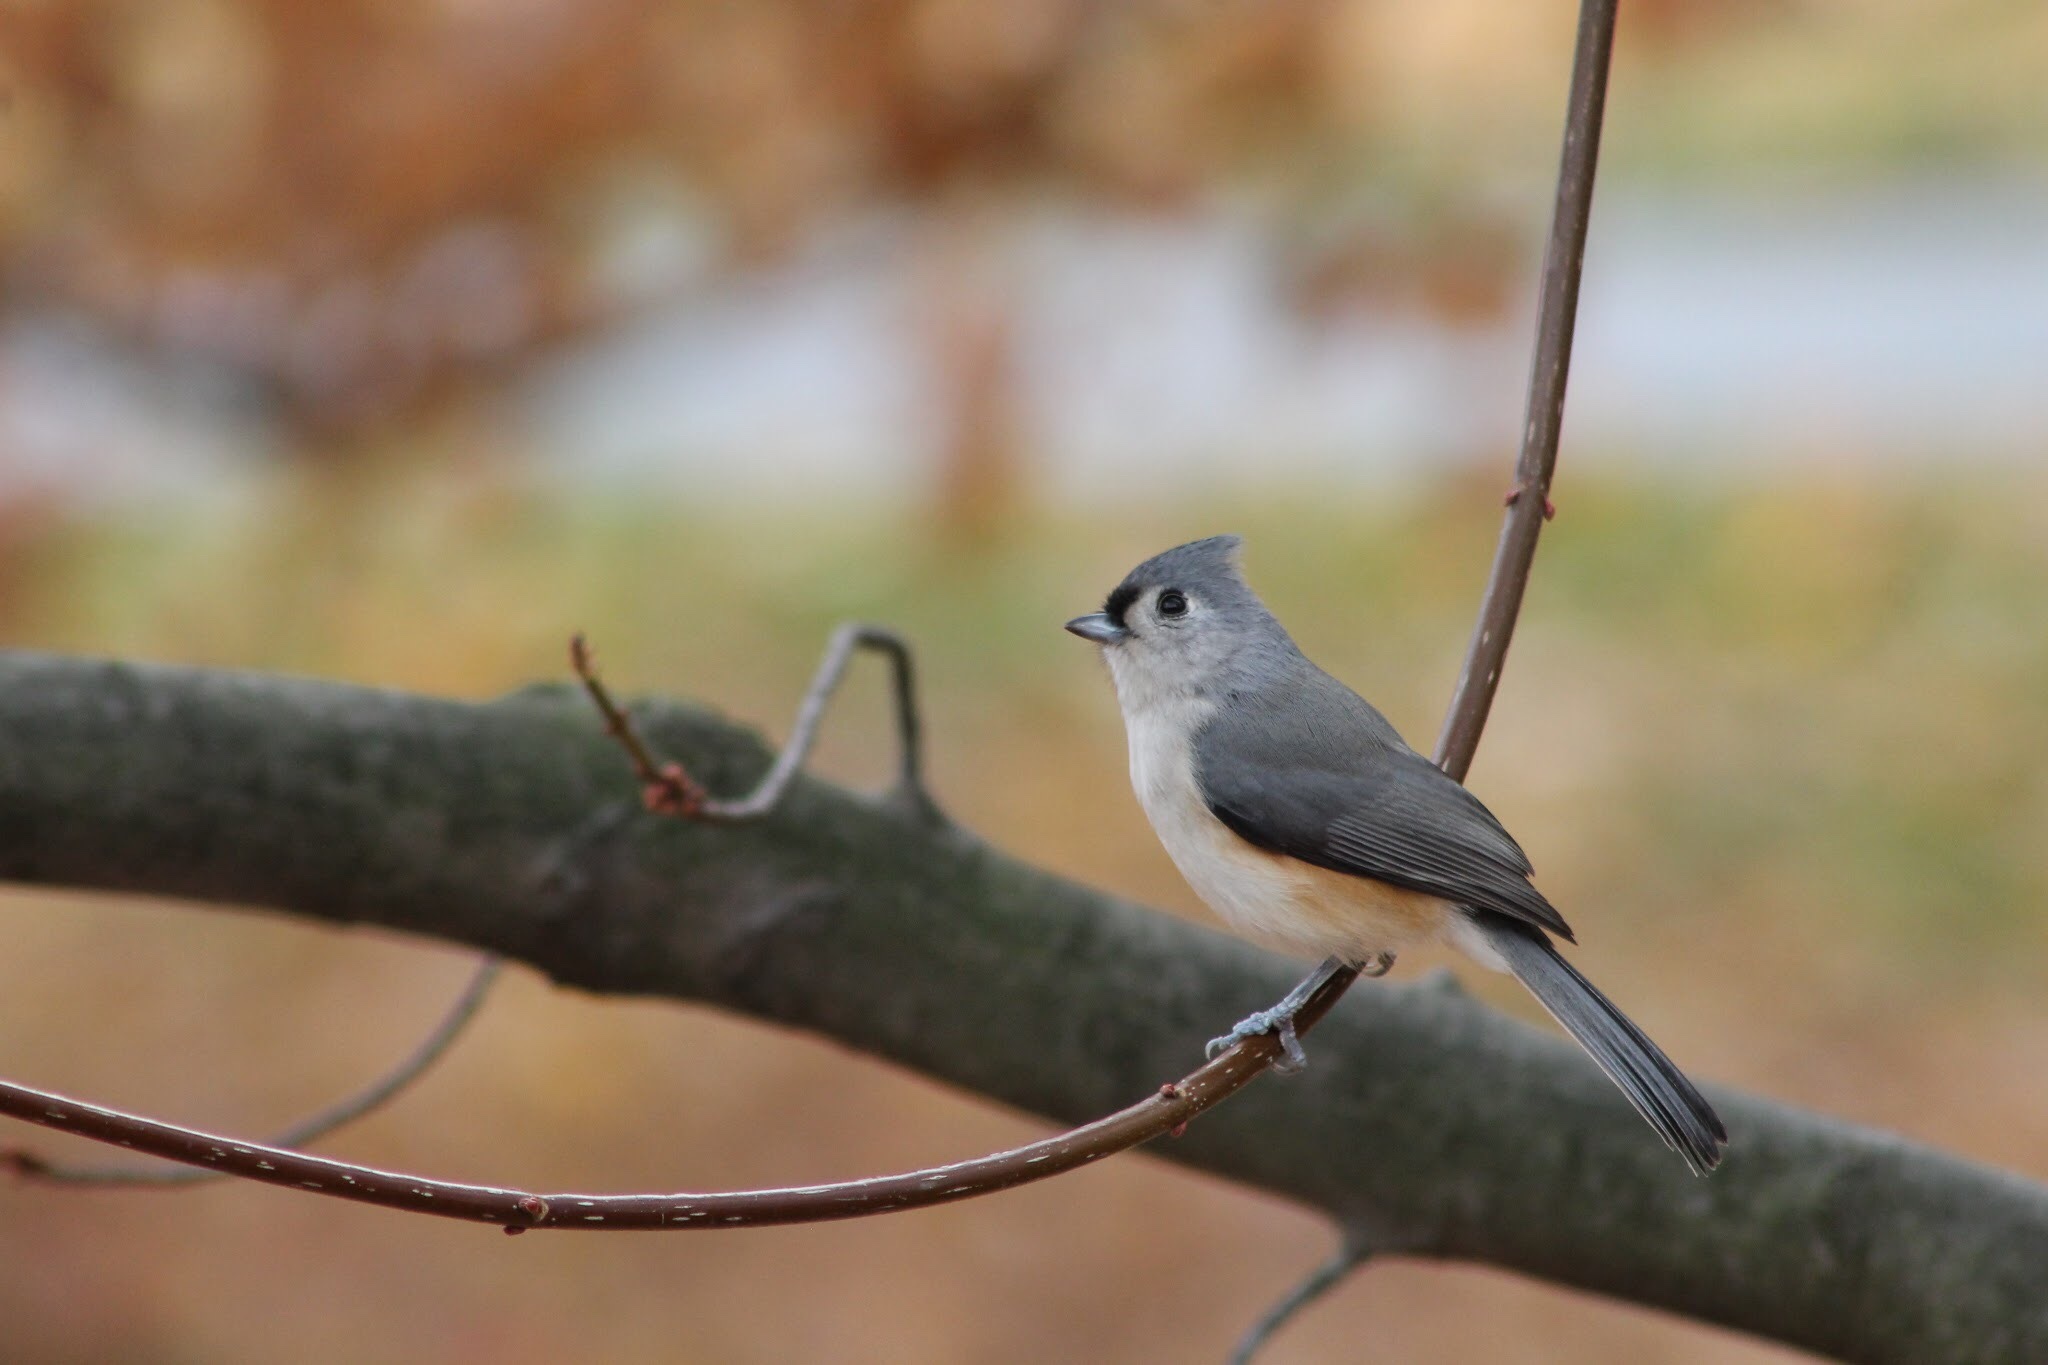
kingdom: Animalia
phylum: Chordata
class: Aves
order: Passeriformes
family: Paridae
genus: Baeolophus
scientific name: Baeolophus bicolor
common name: Tufted titmouse
